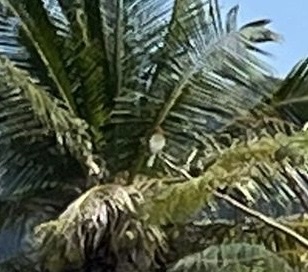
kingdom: Animalia
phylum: Chordata
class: Aves
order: Coraciiformes
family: Meropidae
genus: Merops
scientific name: Merops orientalis
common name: Green bee-eater
